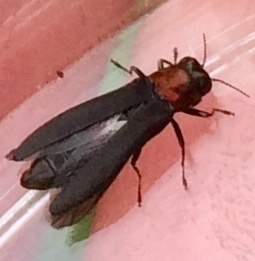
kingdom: Animalia
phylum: Arthropoda
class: Insecta
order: Coleoptera
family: Buprestidae
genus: Agrilus
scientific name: Agrilus ruficollis
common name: Red-necked cane borer beetle
